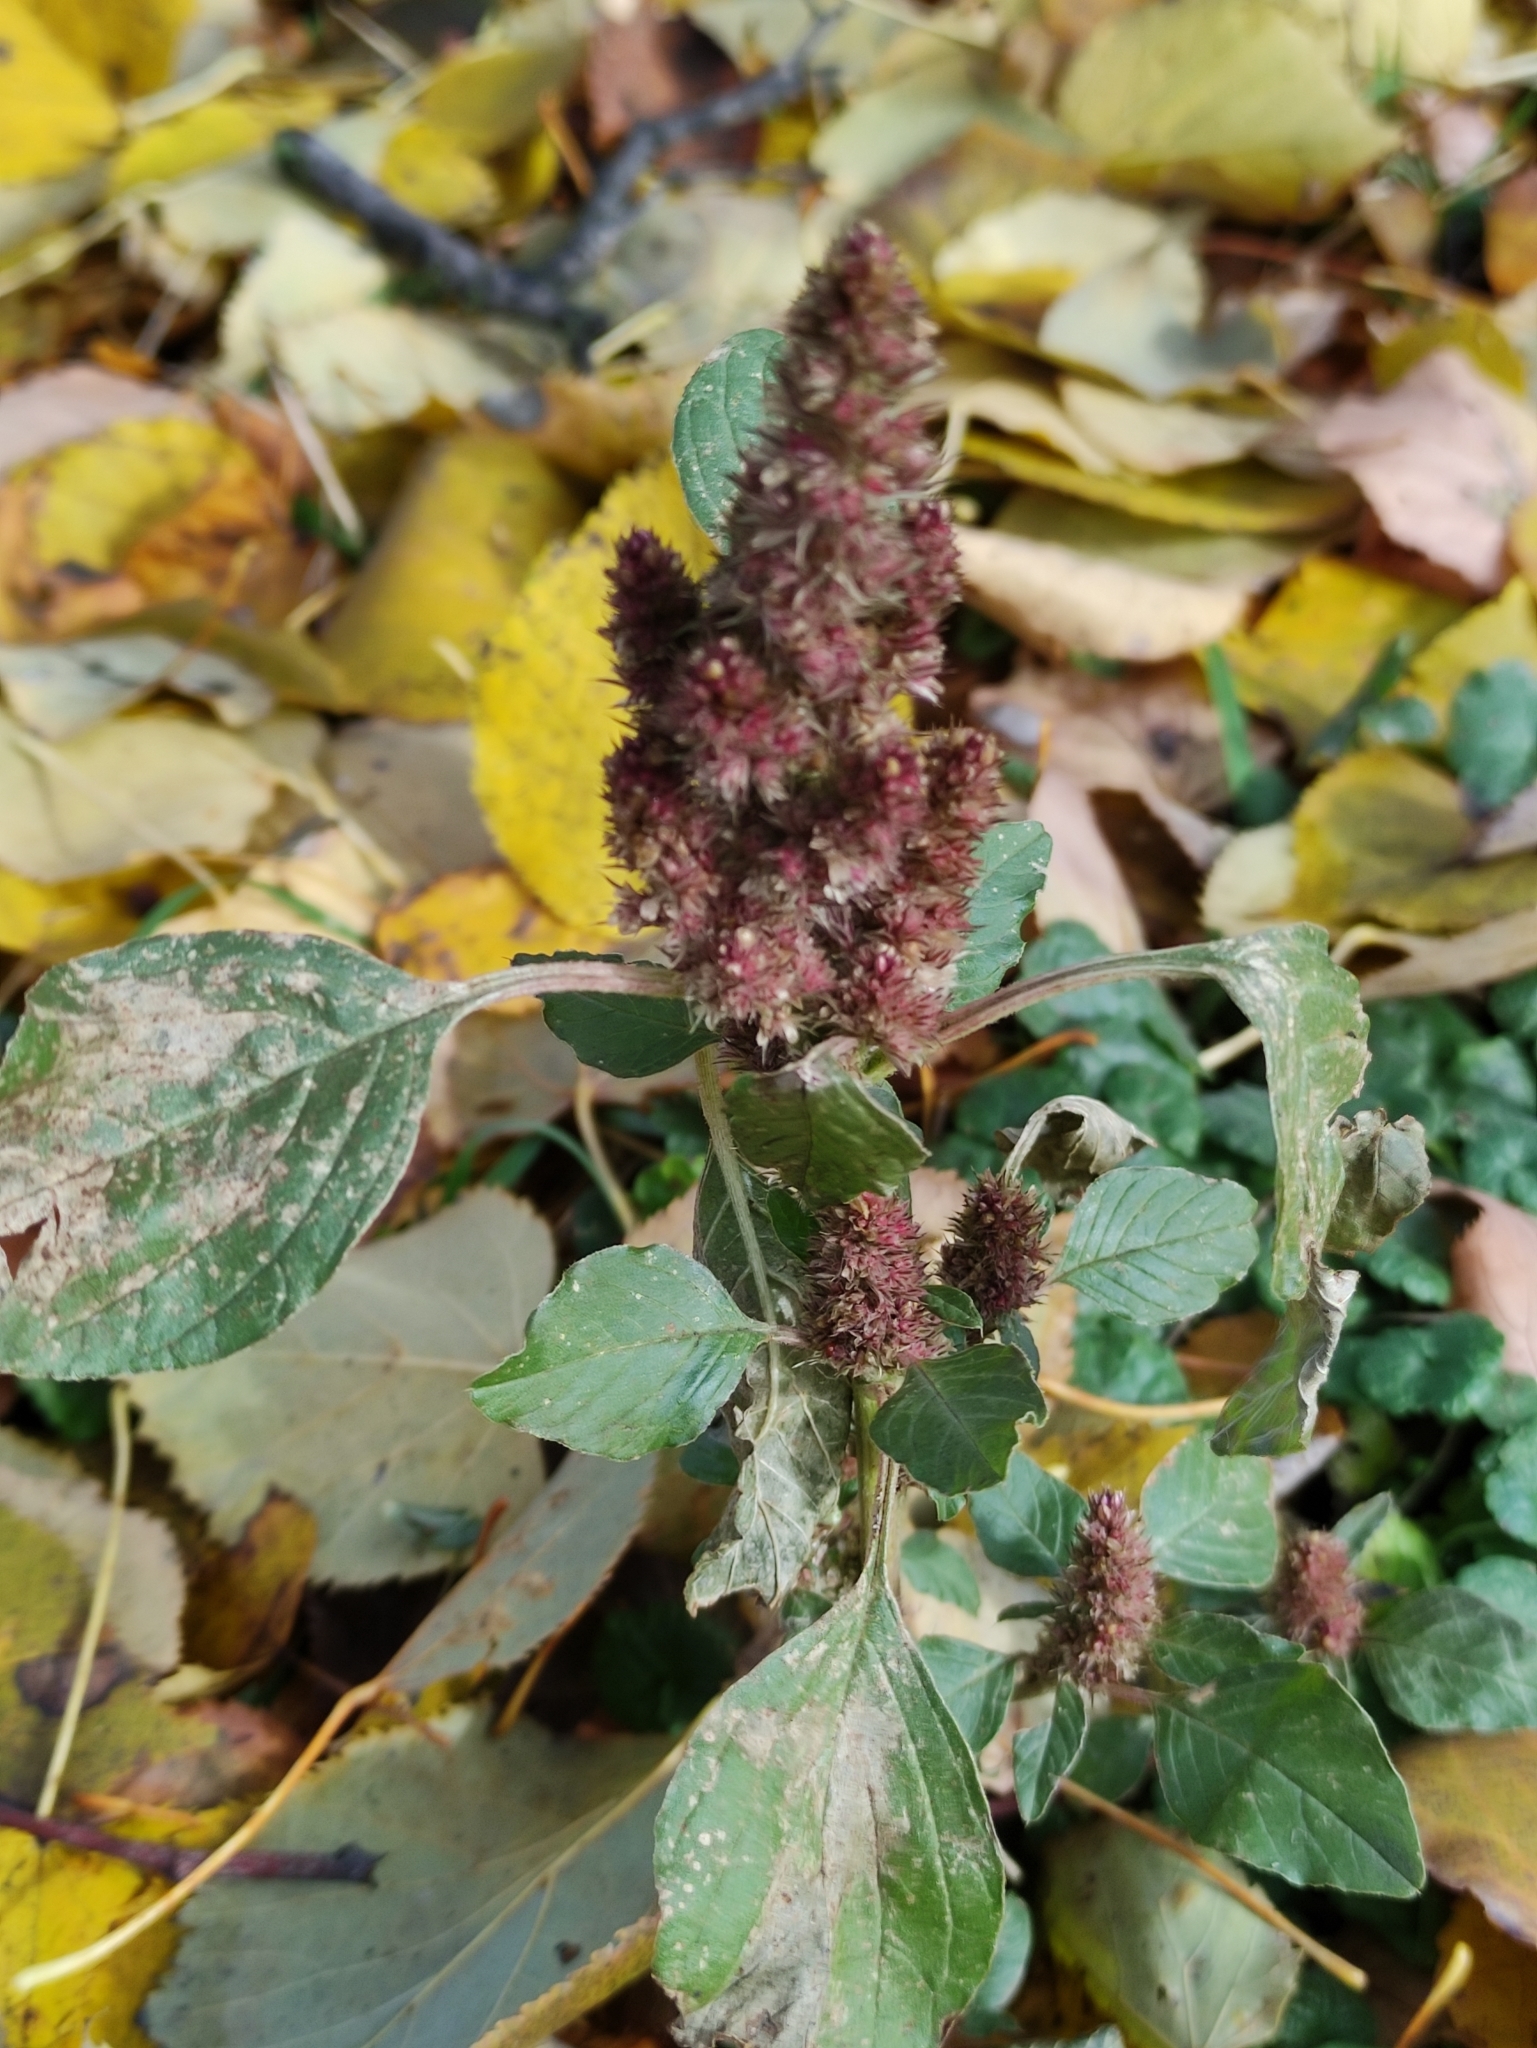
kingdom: Plantae
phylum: Tracheophyta
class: Magnoliopsida
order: Caryophyllales
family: Amaranthaceae
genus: Amaranthus
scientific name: Amaranthus retroflexus
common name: Redroot amaranth
